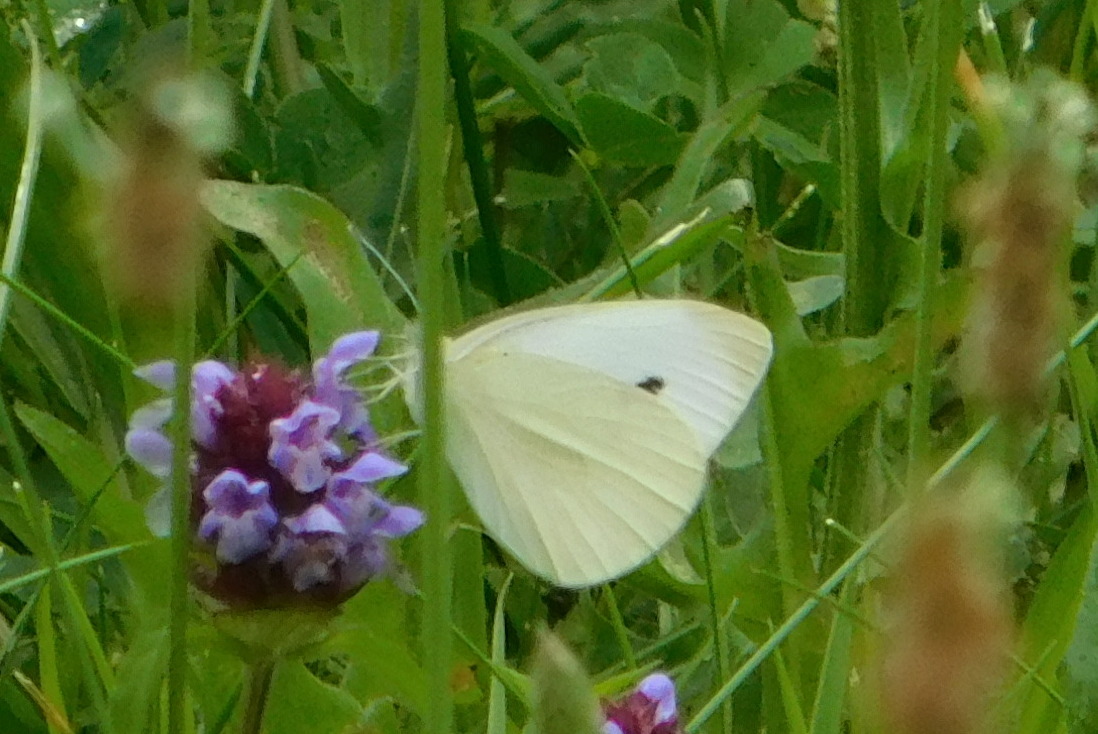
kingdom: Animalia
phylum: Arthropoda
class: Insecta
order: Lepidoptera
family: Pieridae
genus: Pieris
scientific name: Pieris rapae
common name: Small white
